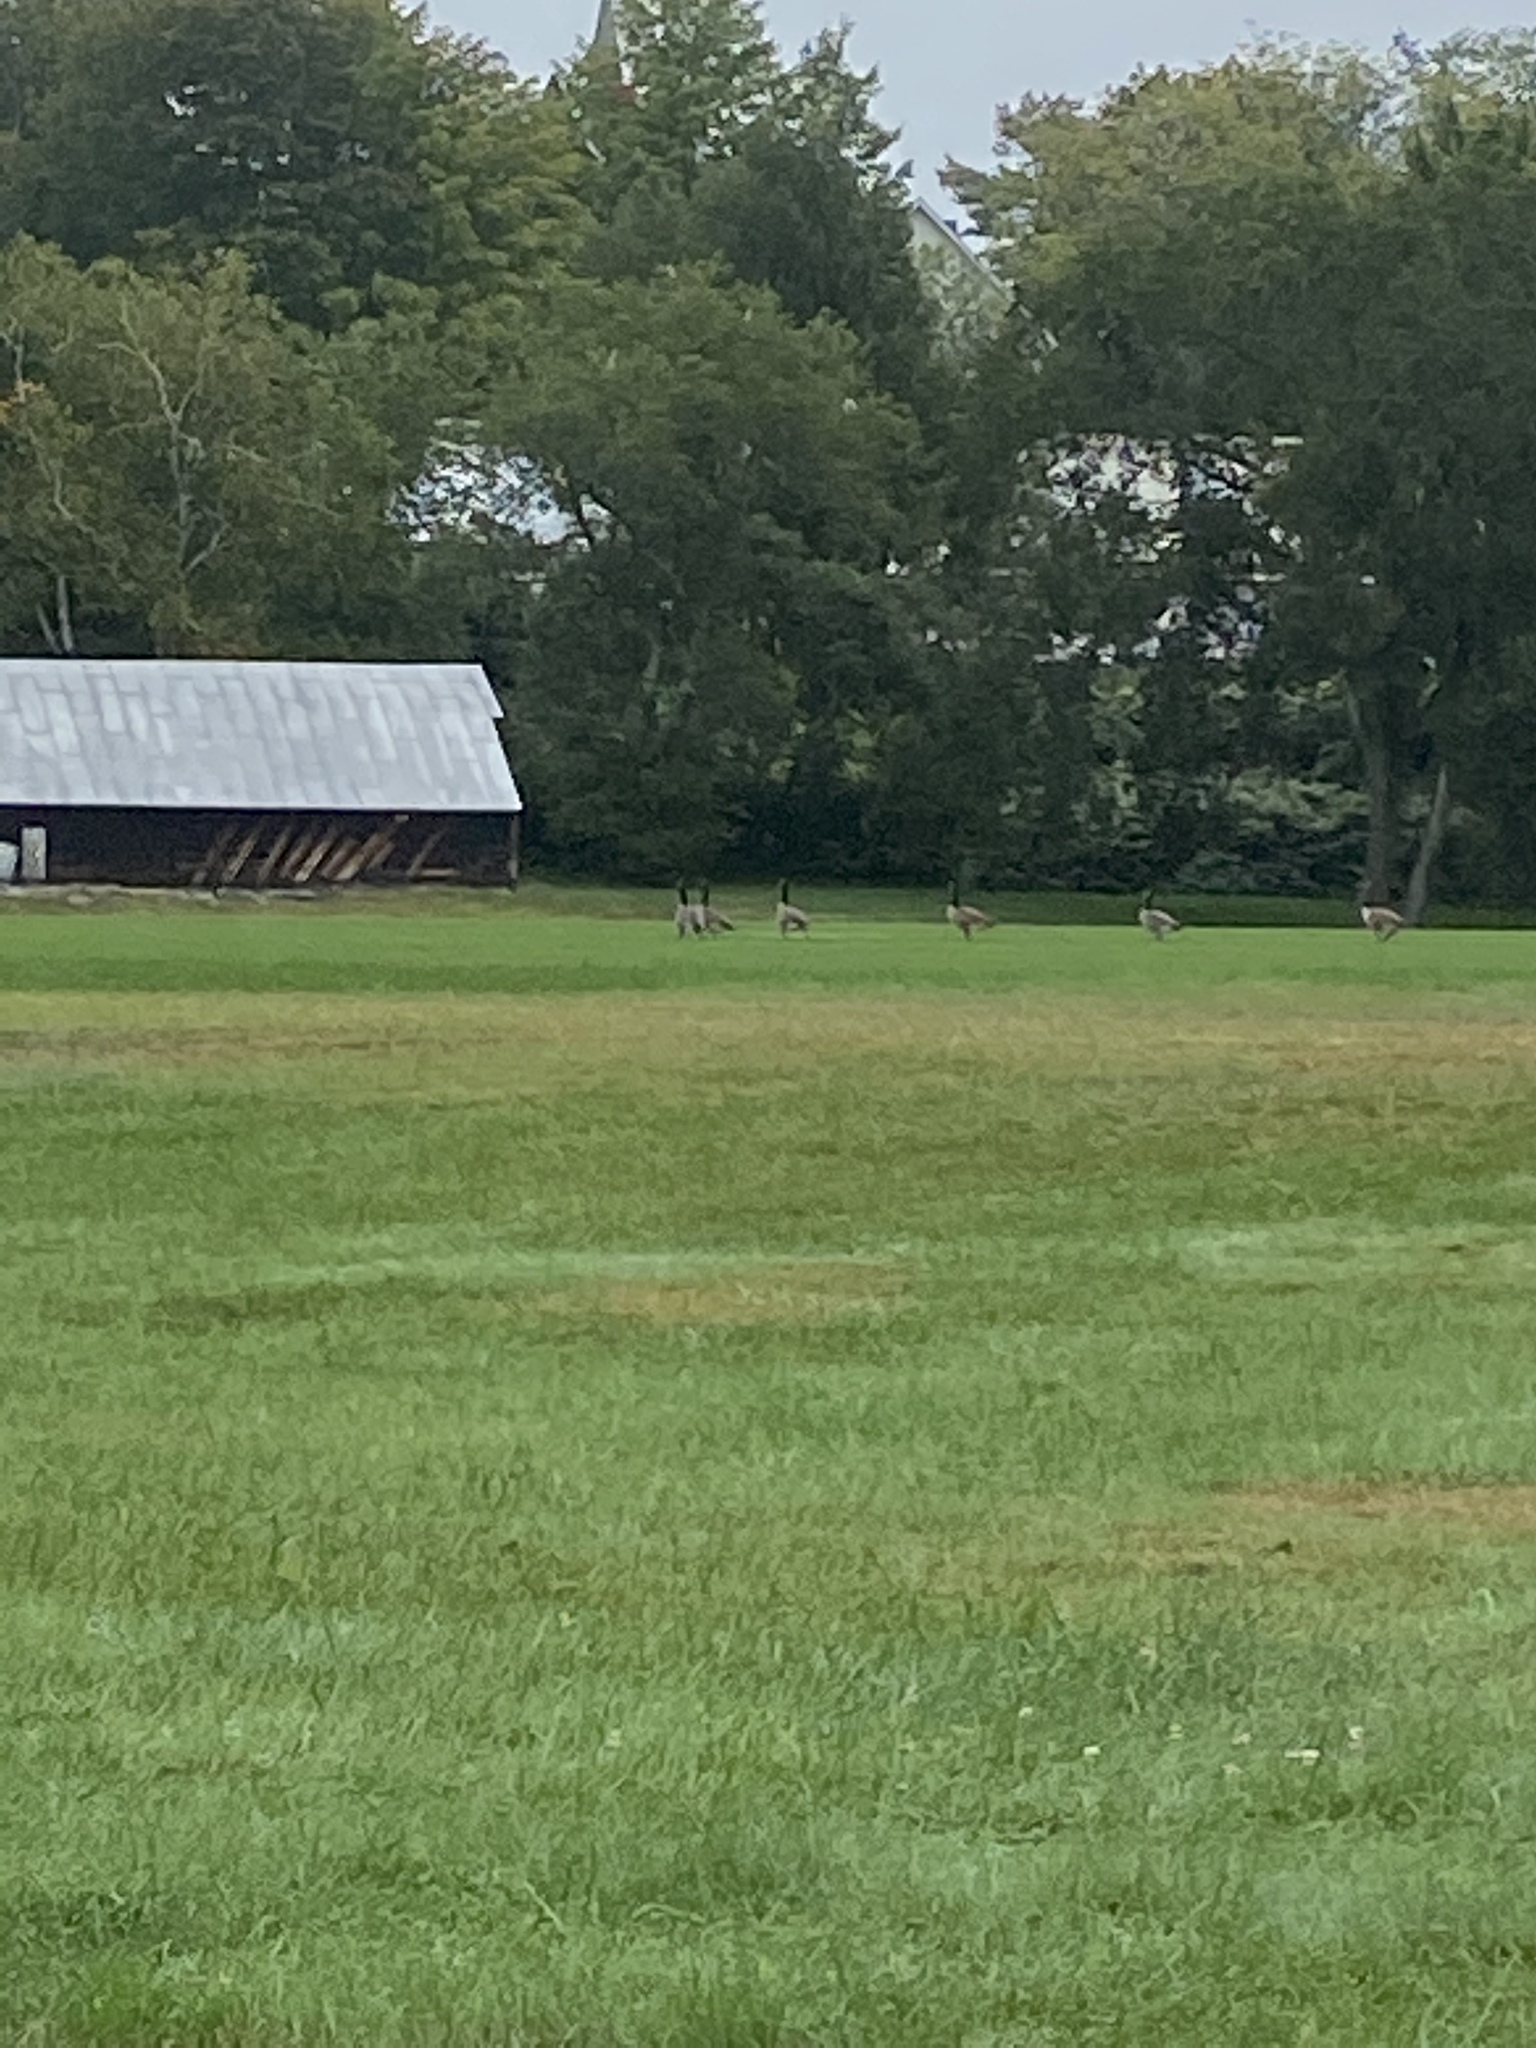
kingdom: Animalia
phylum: Chordata
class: Aves
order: Anseriformes
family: Anatidae
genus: Branta
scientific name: Branta canadensis
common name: Canada goose
